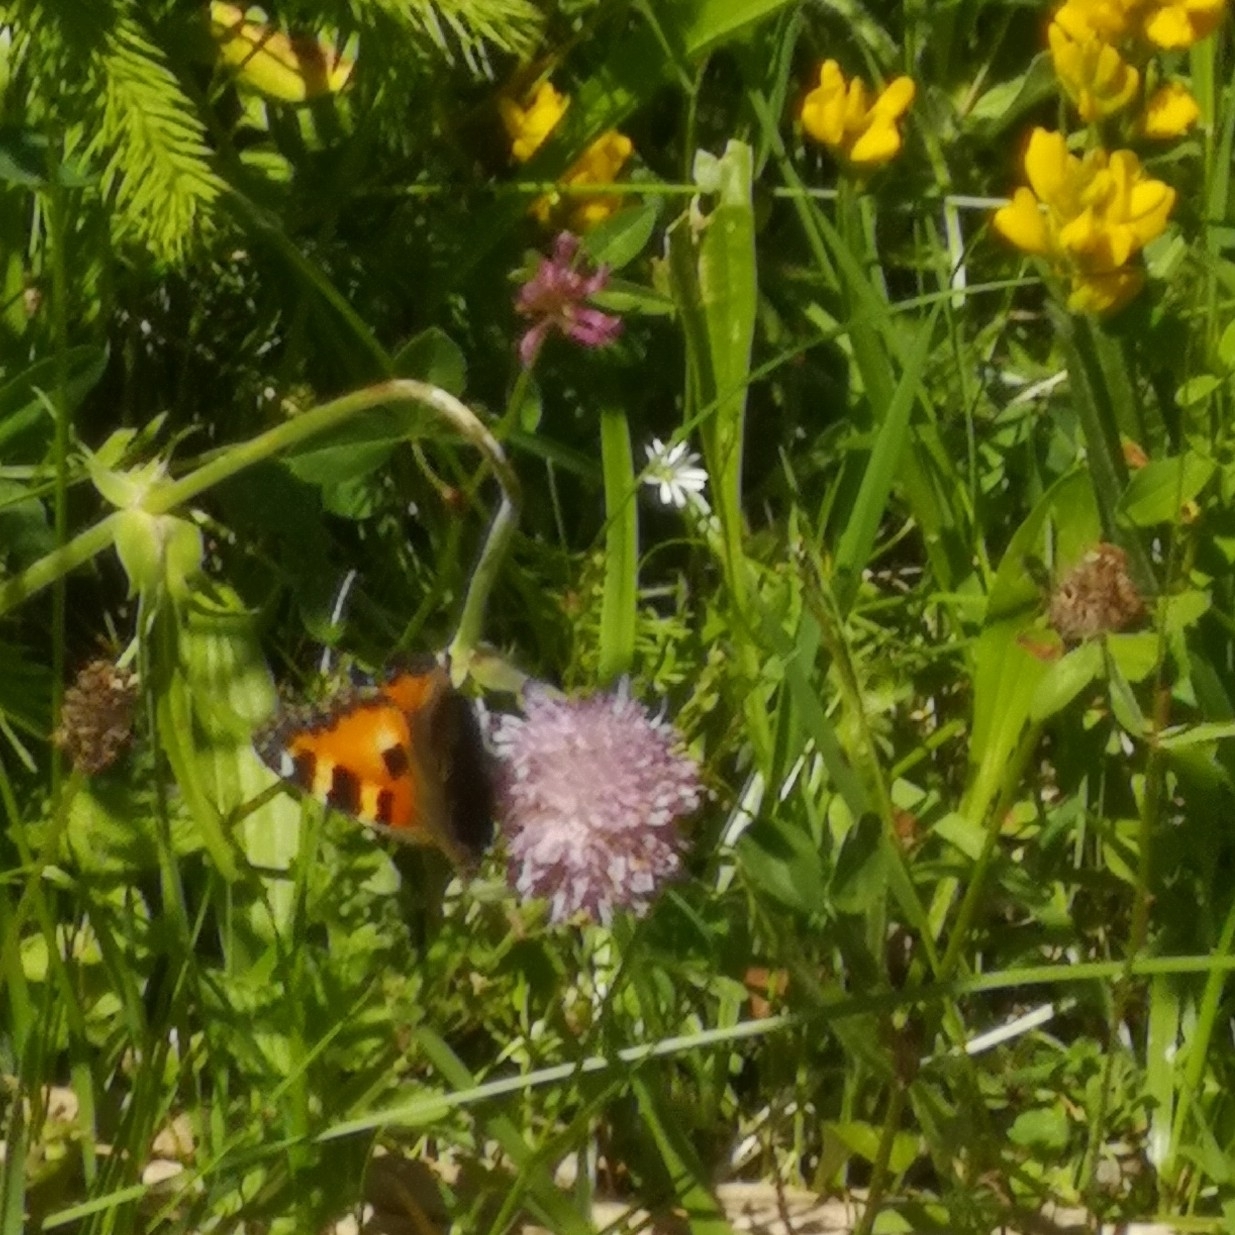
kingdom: Animalia
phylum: Arthropoda
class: Insecta
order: Lepidoptera
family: Nymphalidae
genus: Aglais
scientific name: Aglais urticae
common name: Small tortoiseshell
